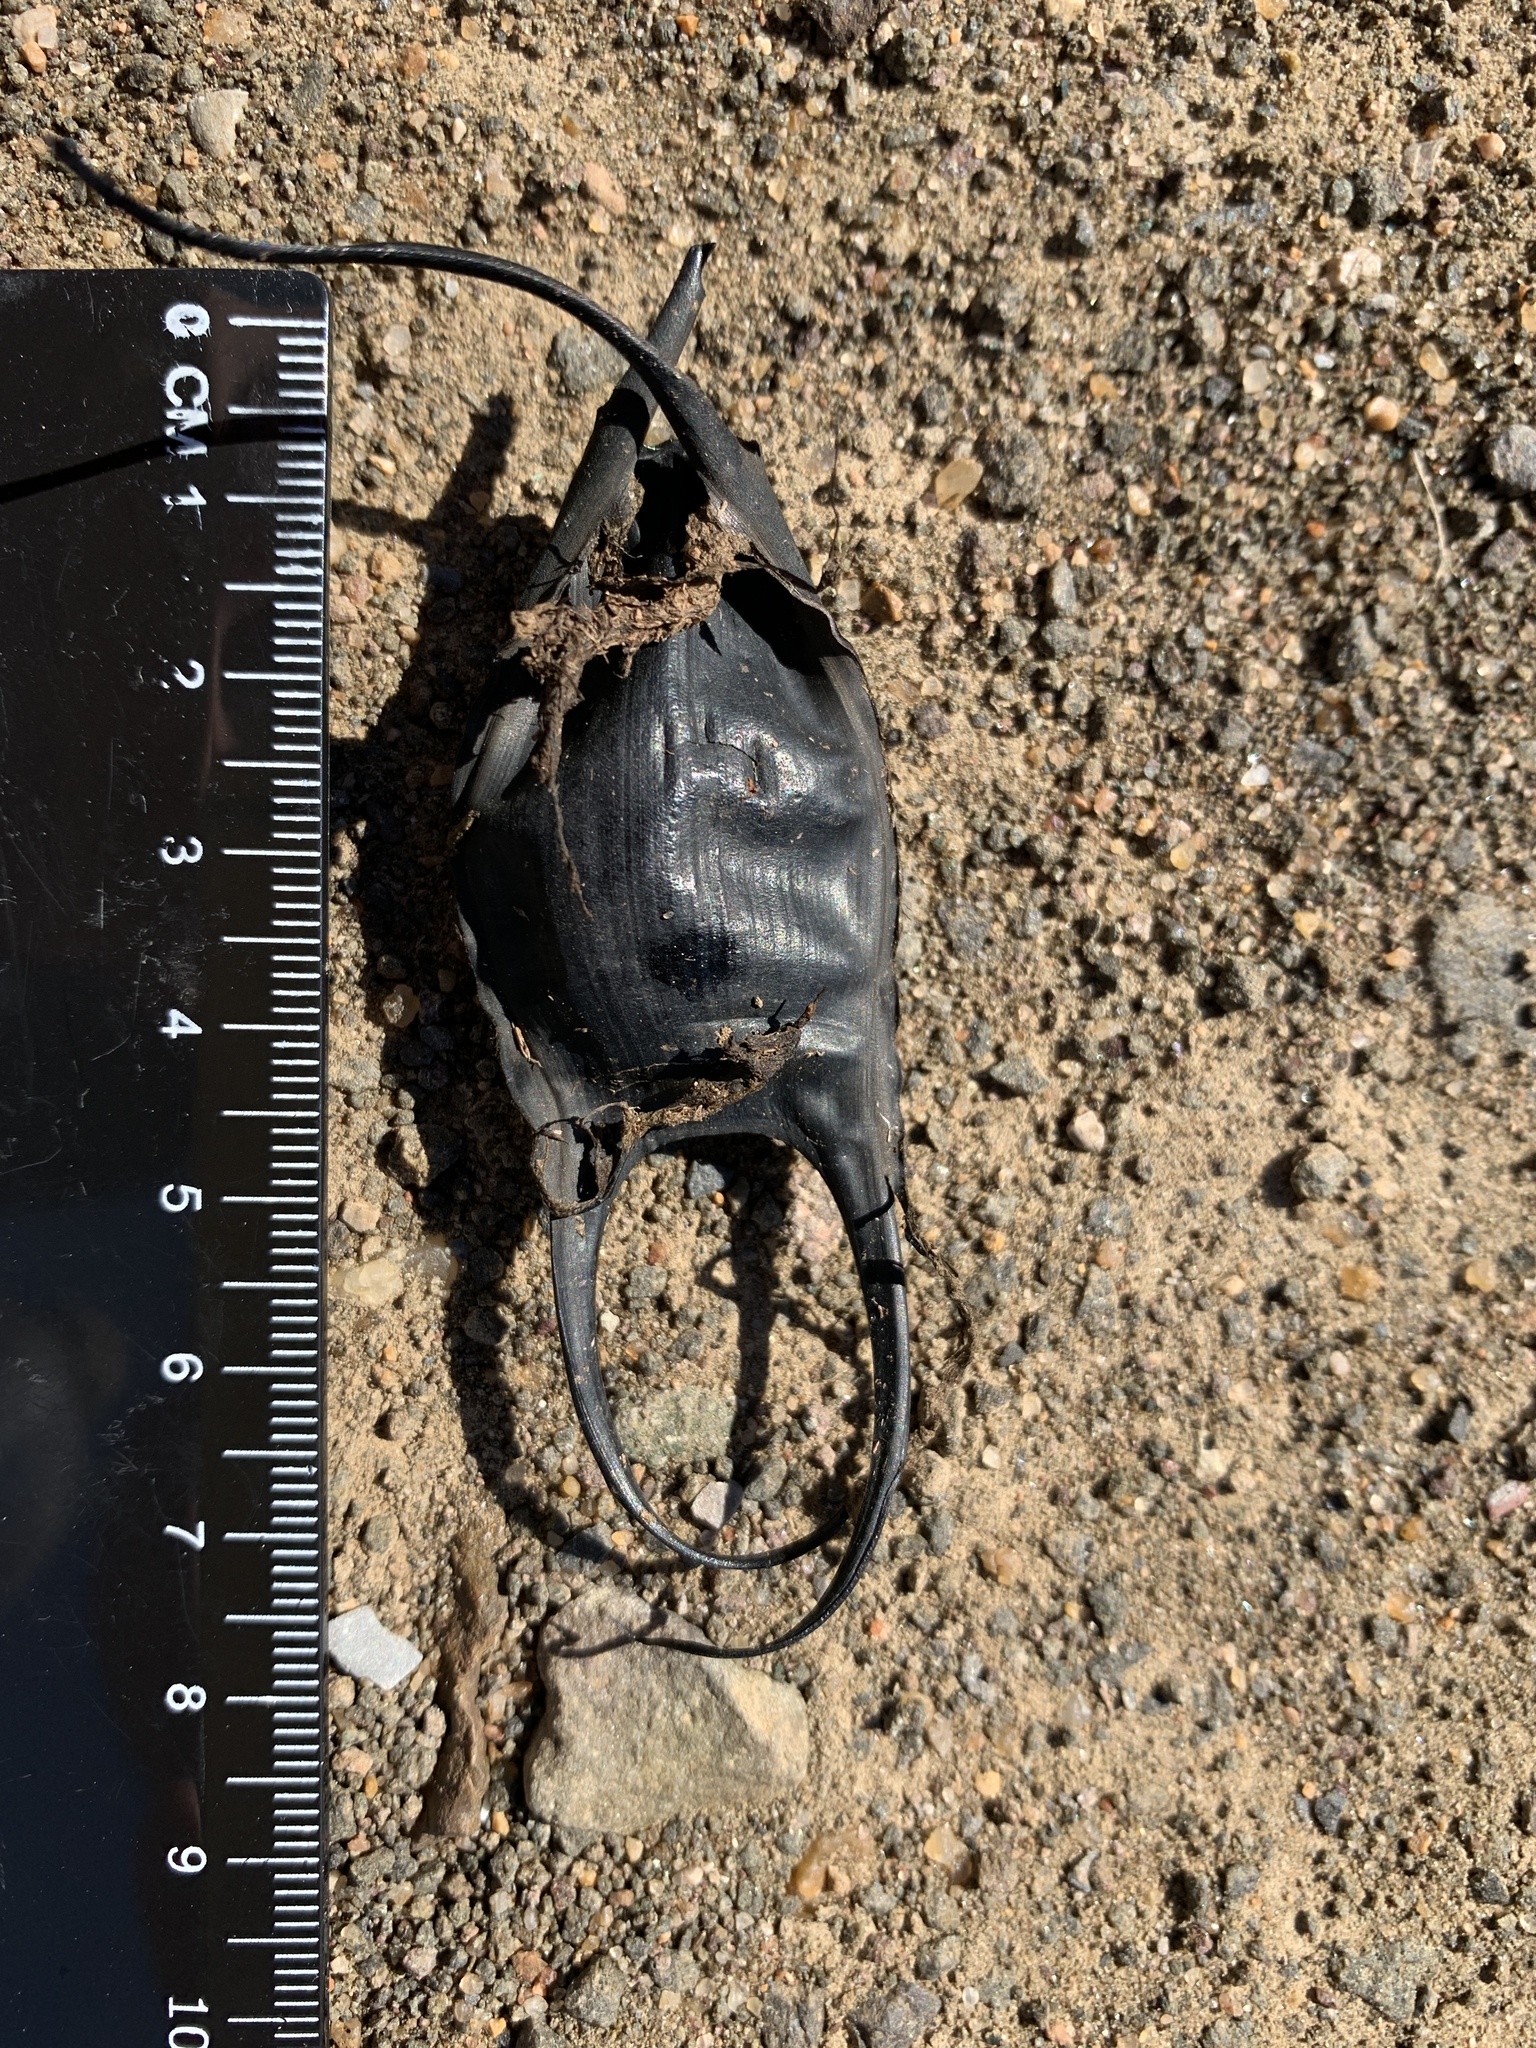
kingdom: Animalia
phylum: Chordata
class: Elasmobranchii
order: Rajiformes
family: Rajidae
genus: Leucoraja
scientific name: Leucoraja erinacea
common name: Little skate
